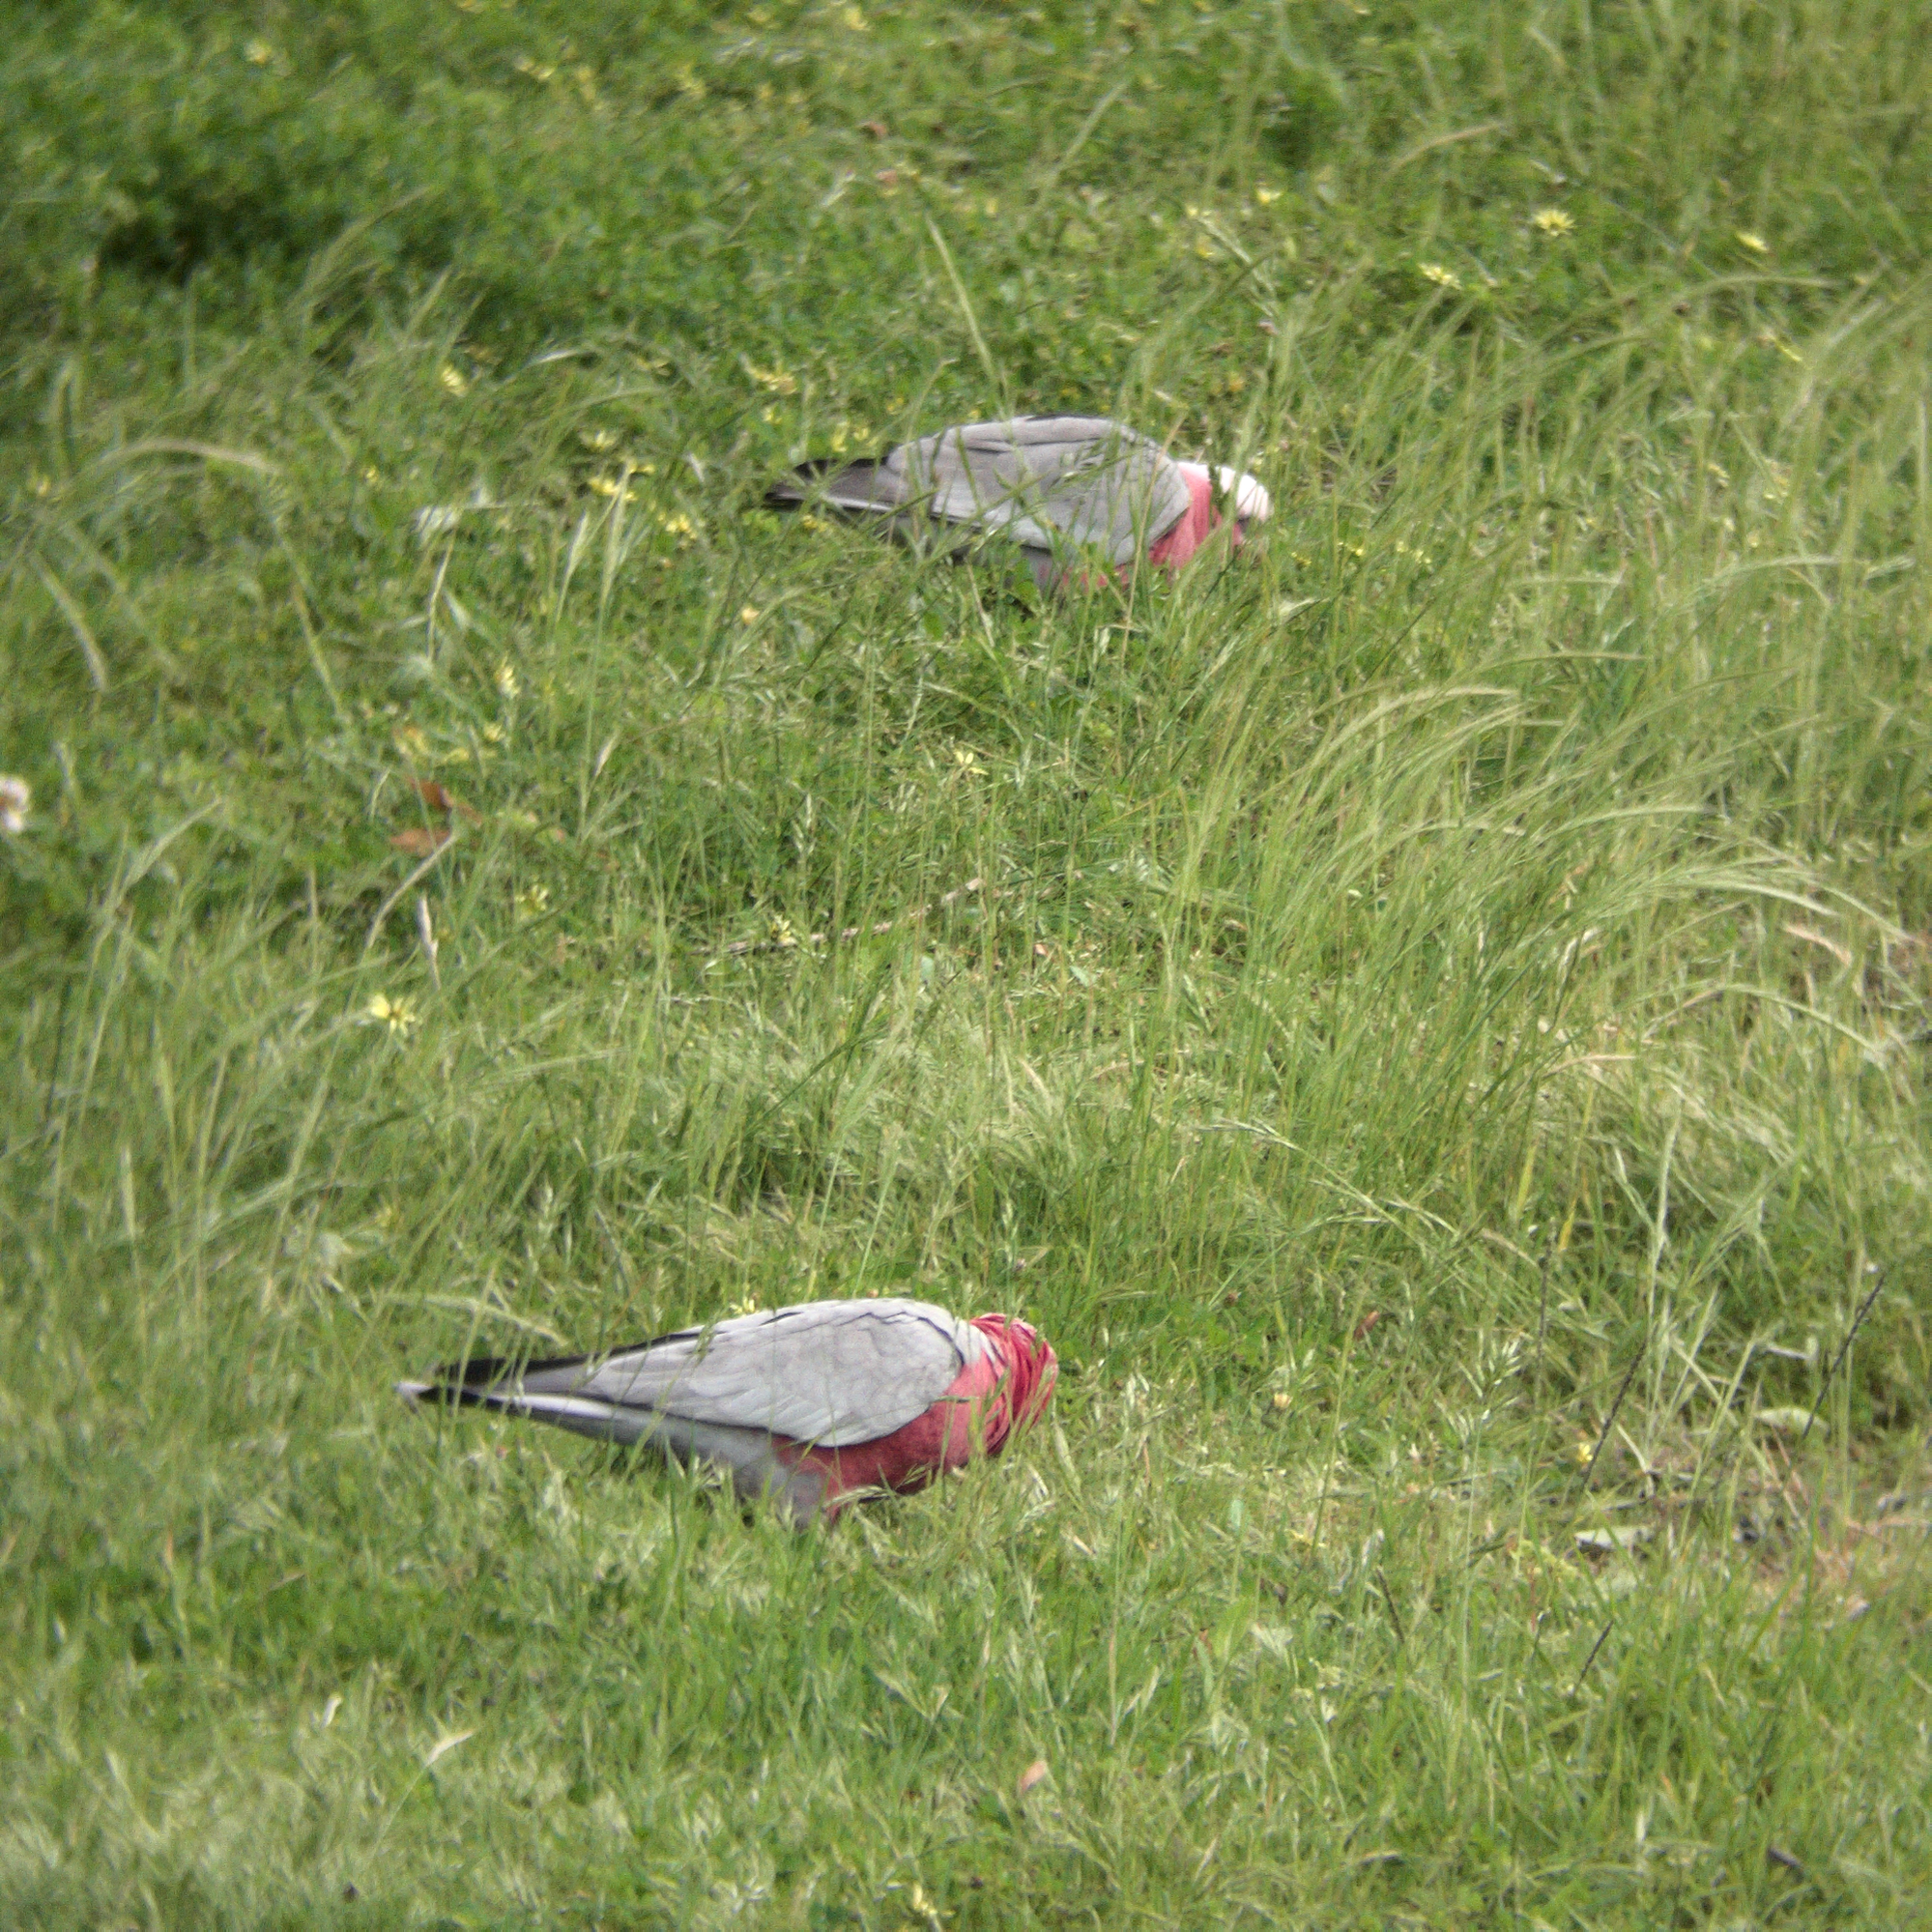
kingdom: Animalia
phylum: Chordata
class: Aves
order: Psittaciformes
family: Psittacidae
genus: Eolophus
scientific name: Eolophus roseicapilla
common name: Galah
